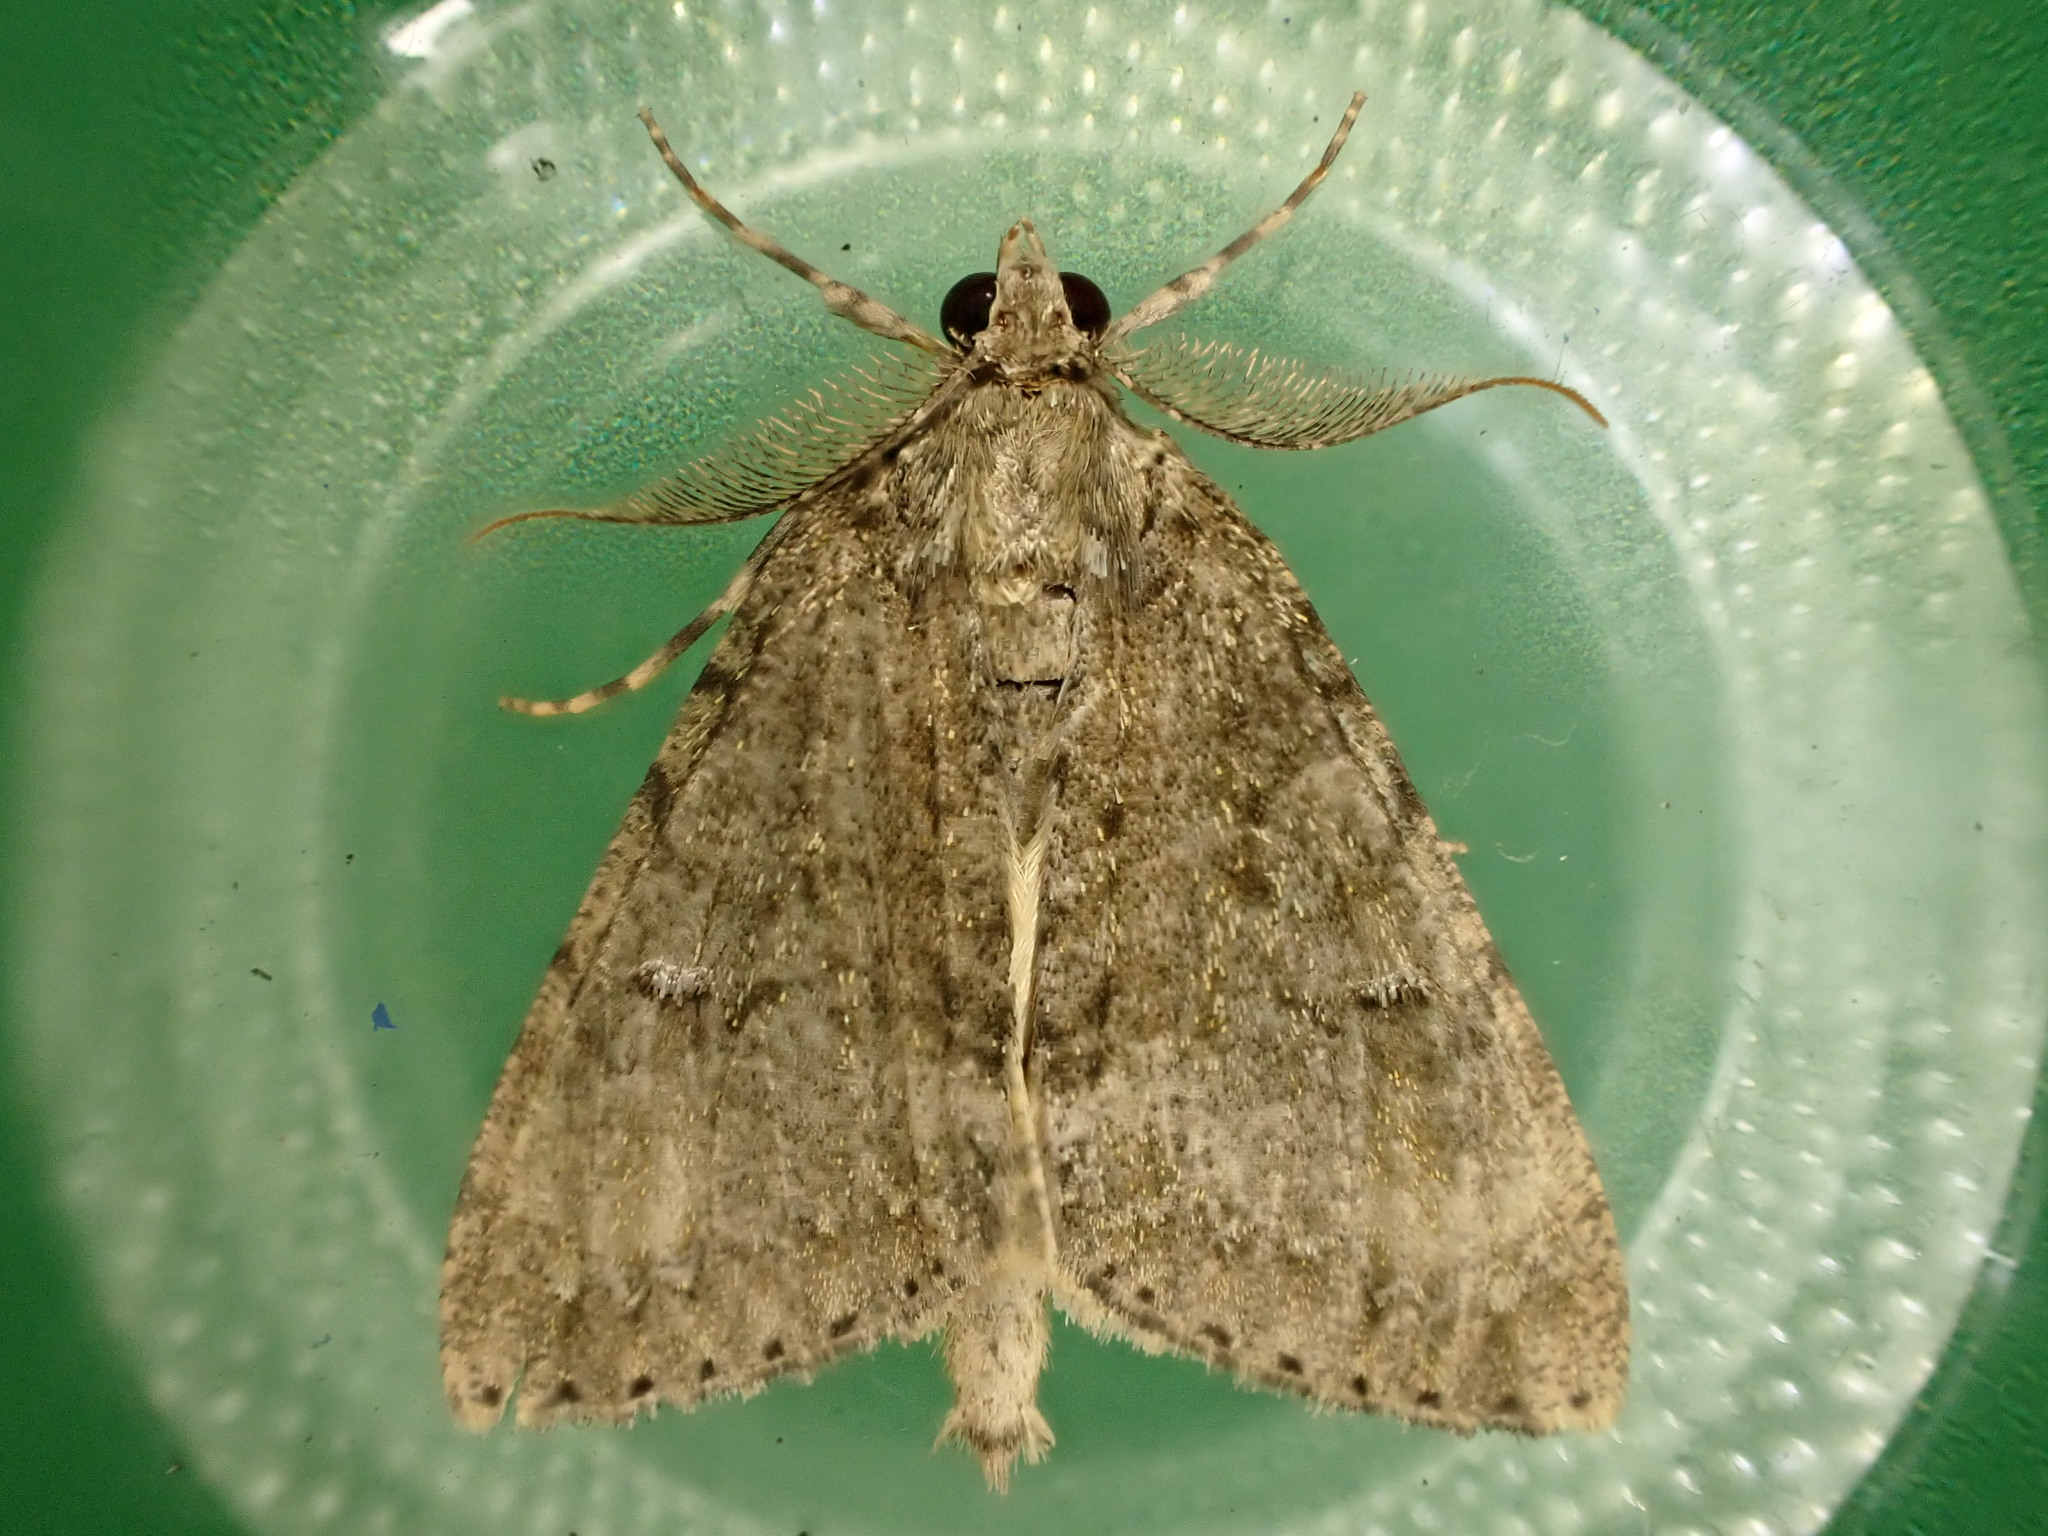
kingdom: Animalia
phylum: Arthropoda
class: Insecta
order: Lepidoptera
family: Geometridae
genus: Pseudocoremia
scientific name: Pseudocoremia suavis
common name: Common forest looper
